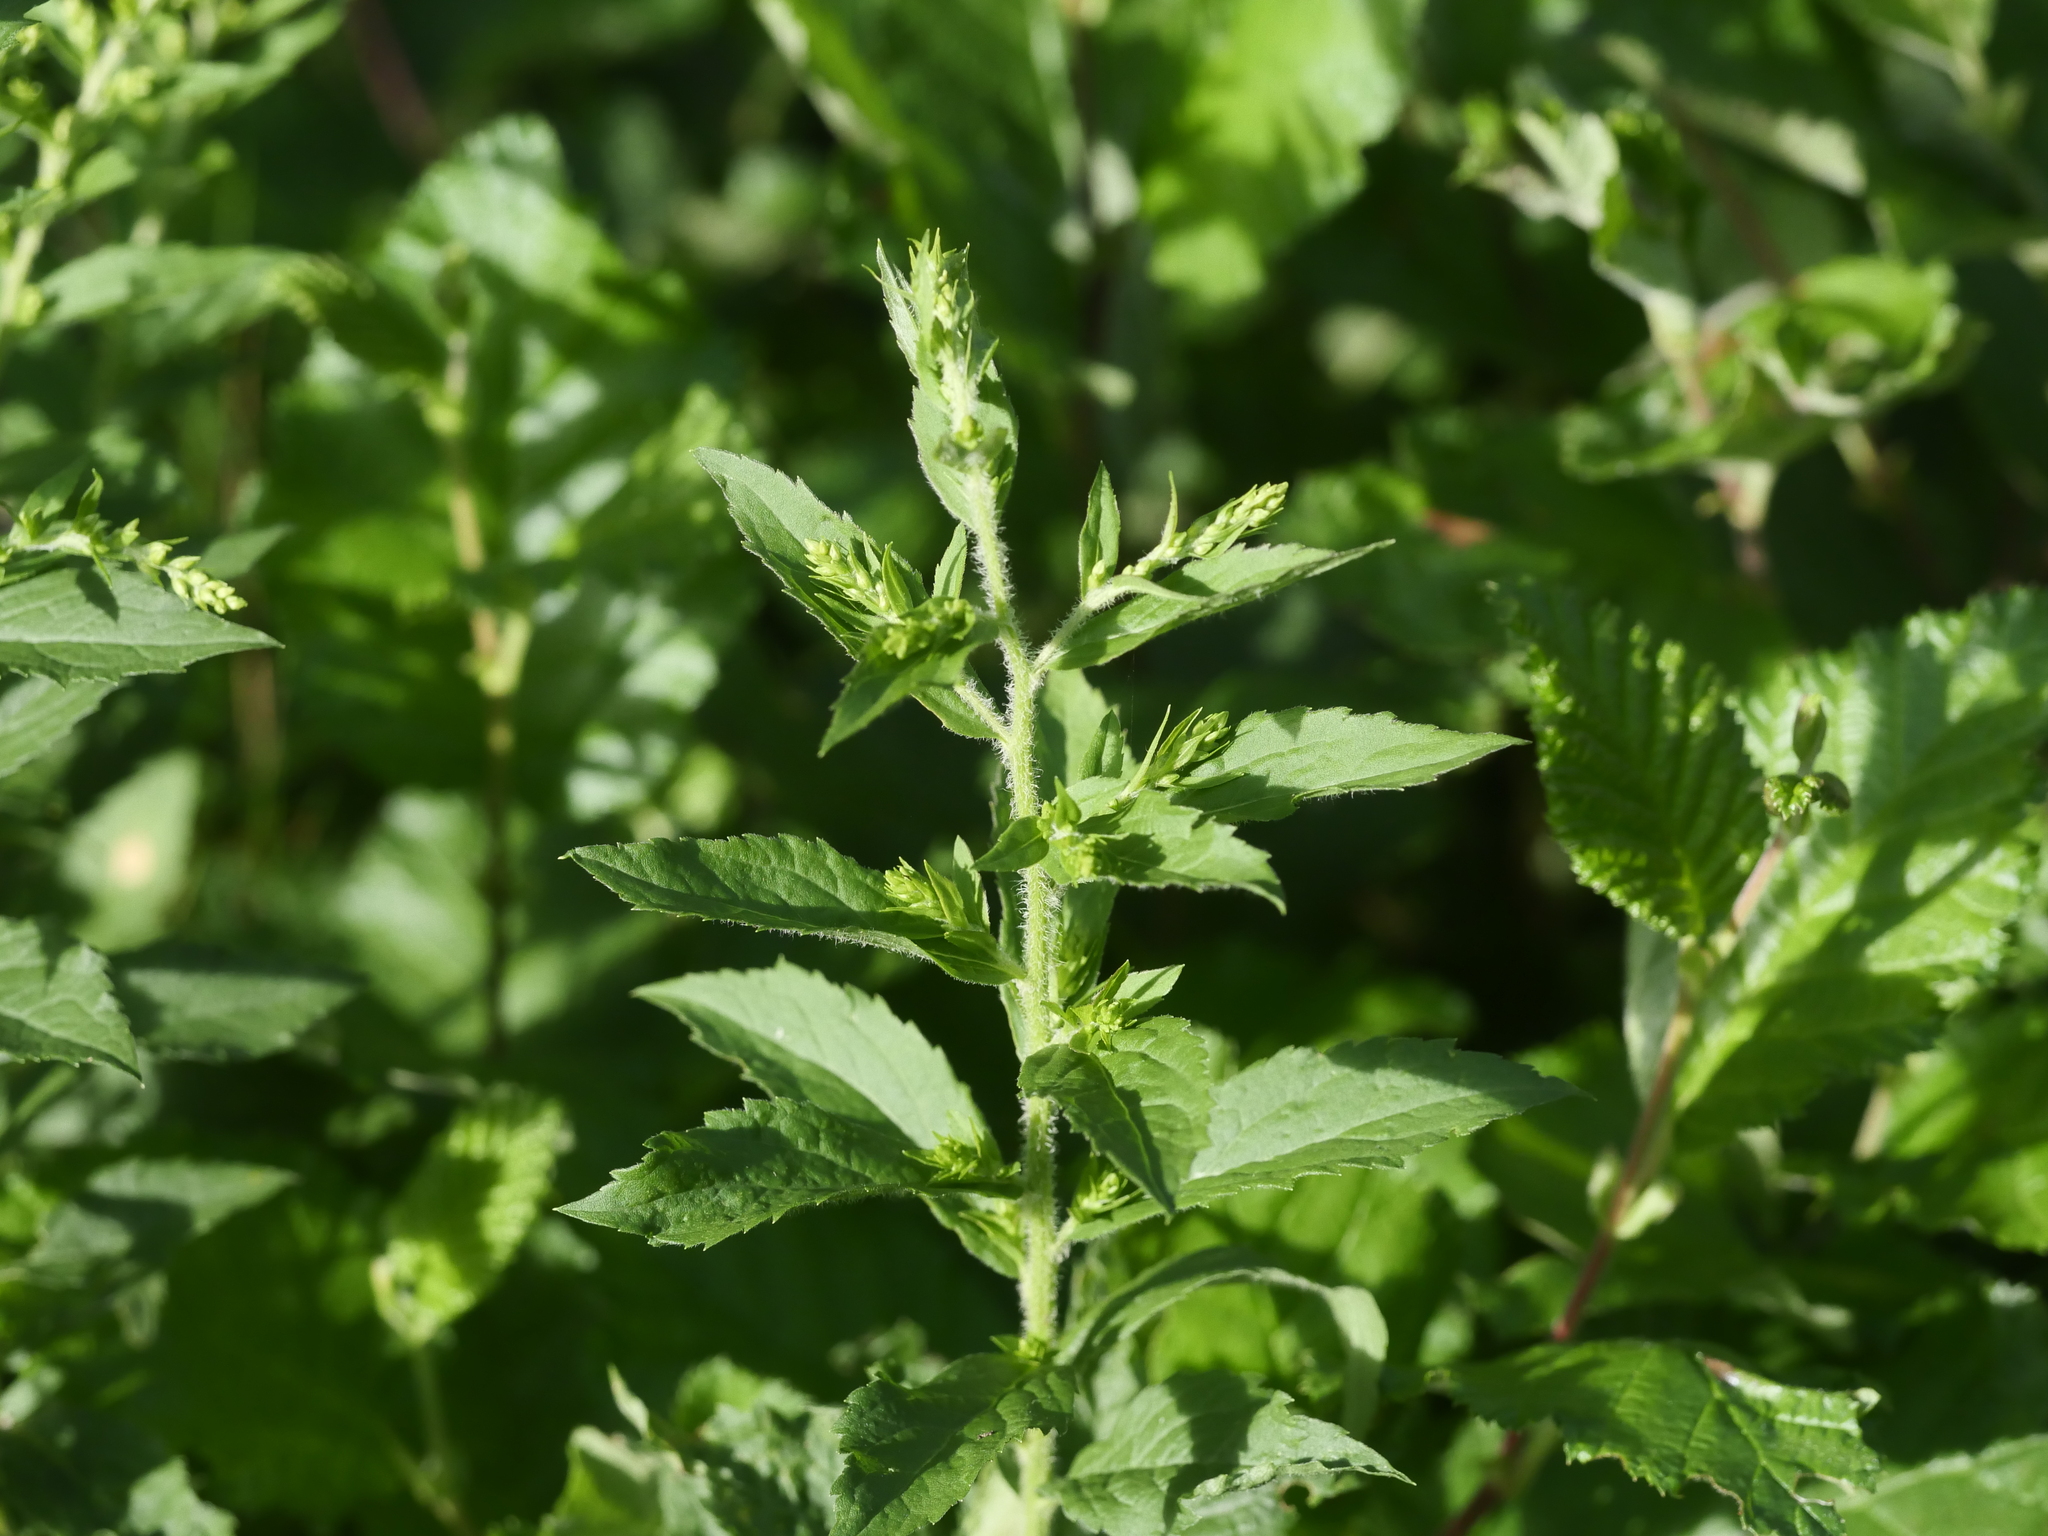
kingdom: Plantae
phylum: Tracheophyta
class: Magnoliopsida
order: Asterales
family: Asteraceae
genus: Solidago
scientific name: Solidago rugosa
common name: Rough-stemmed goldenrod
